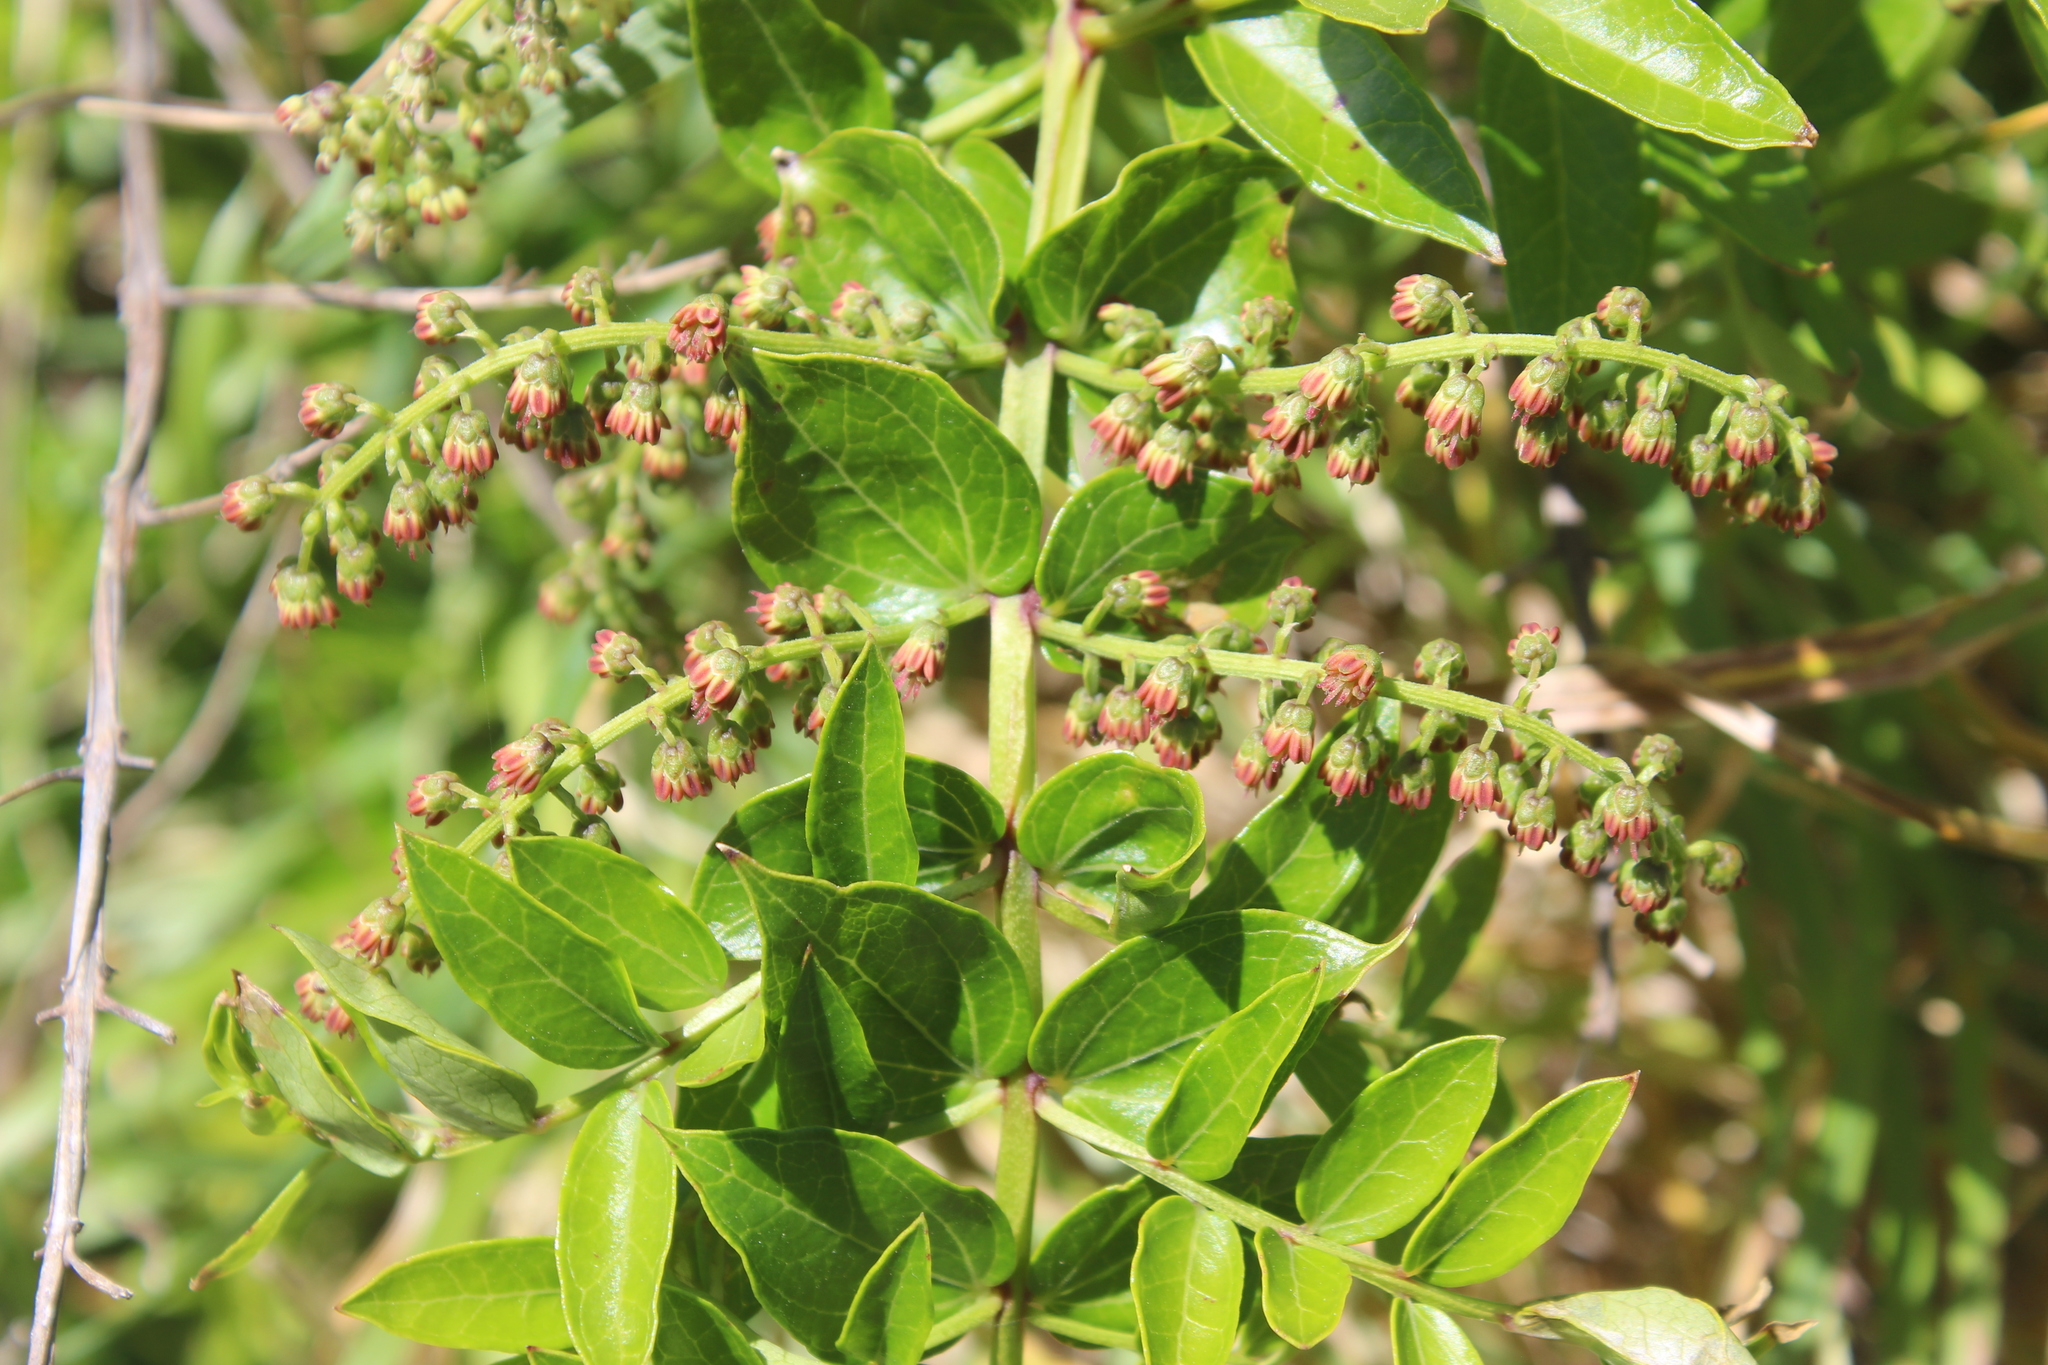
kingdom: Plantae
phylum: Tracheophyta
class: Magnoliopsida
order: Cucurbitales
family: Coriariaceae
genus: Coriaria
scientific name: Coriaria sarmentosa
